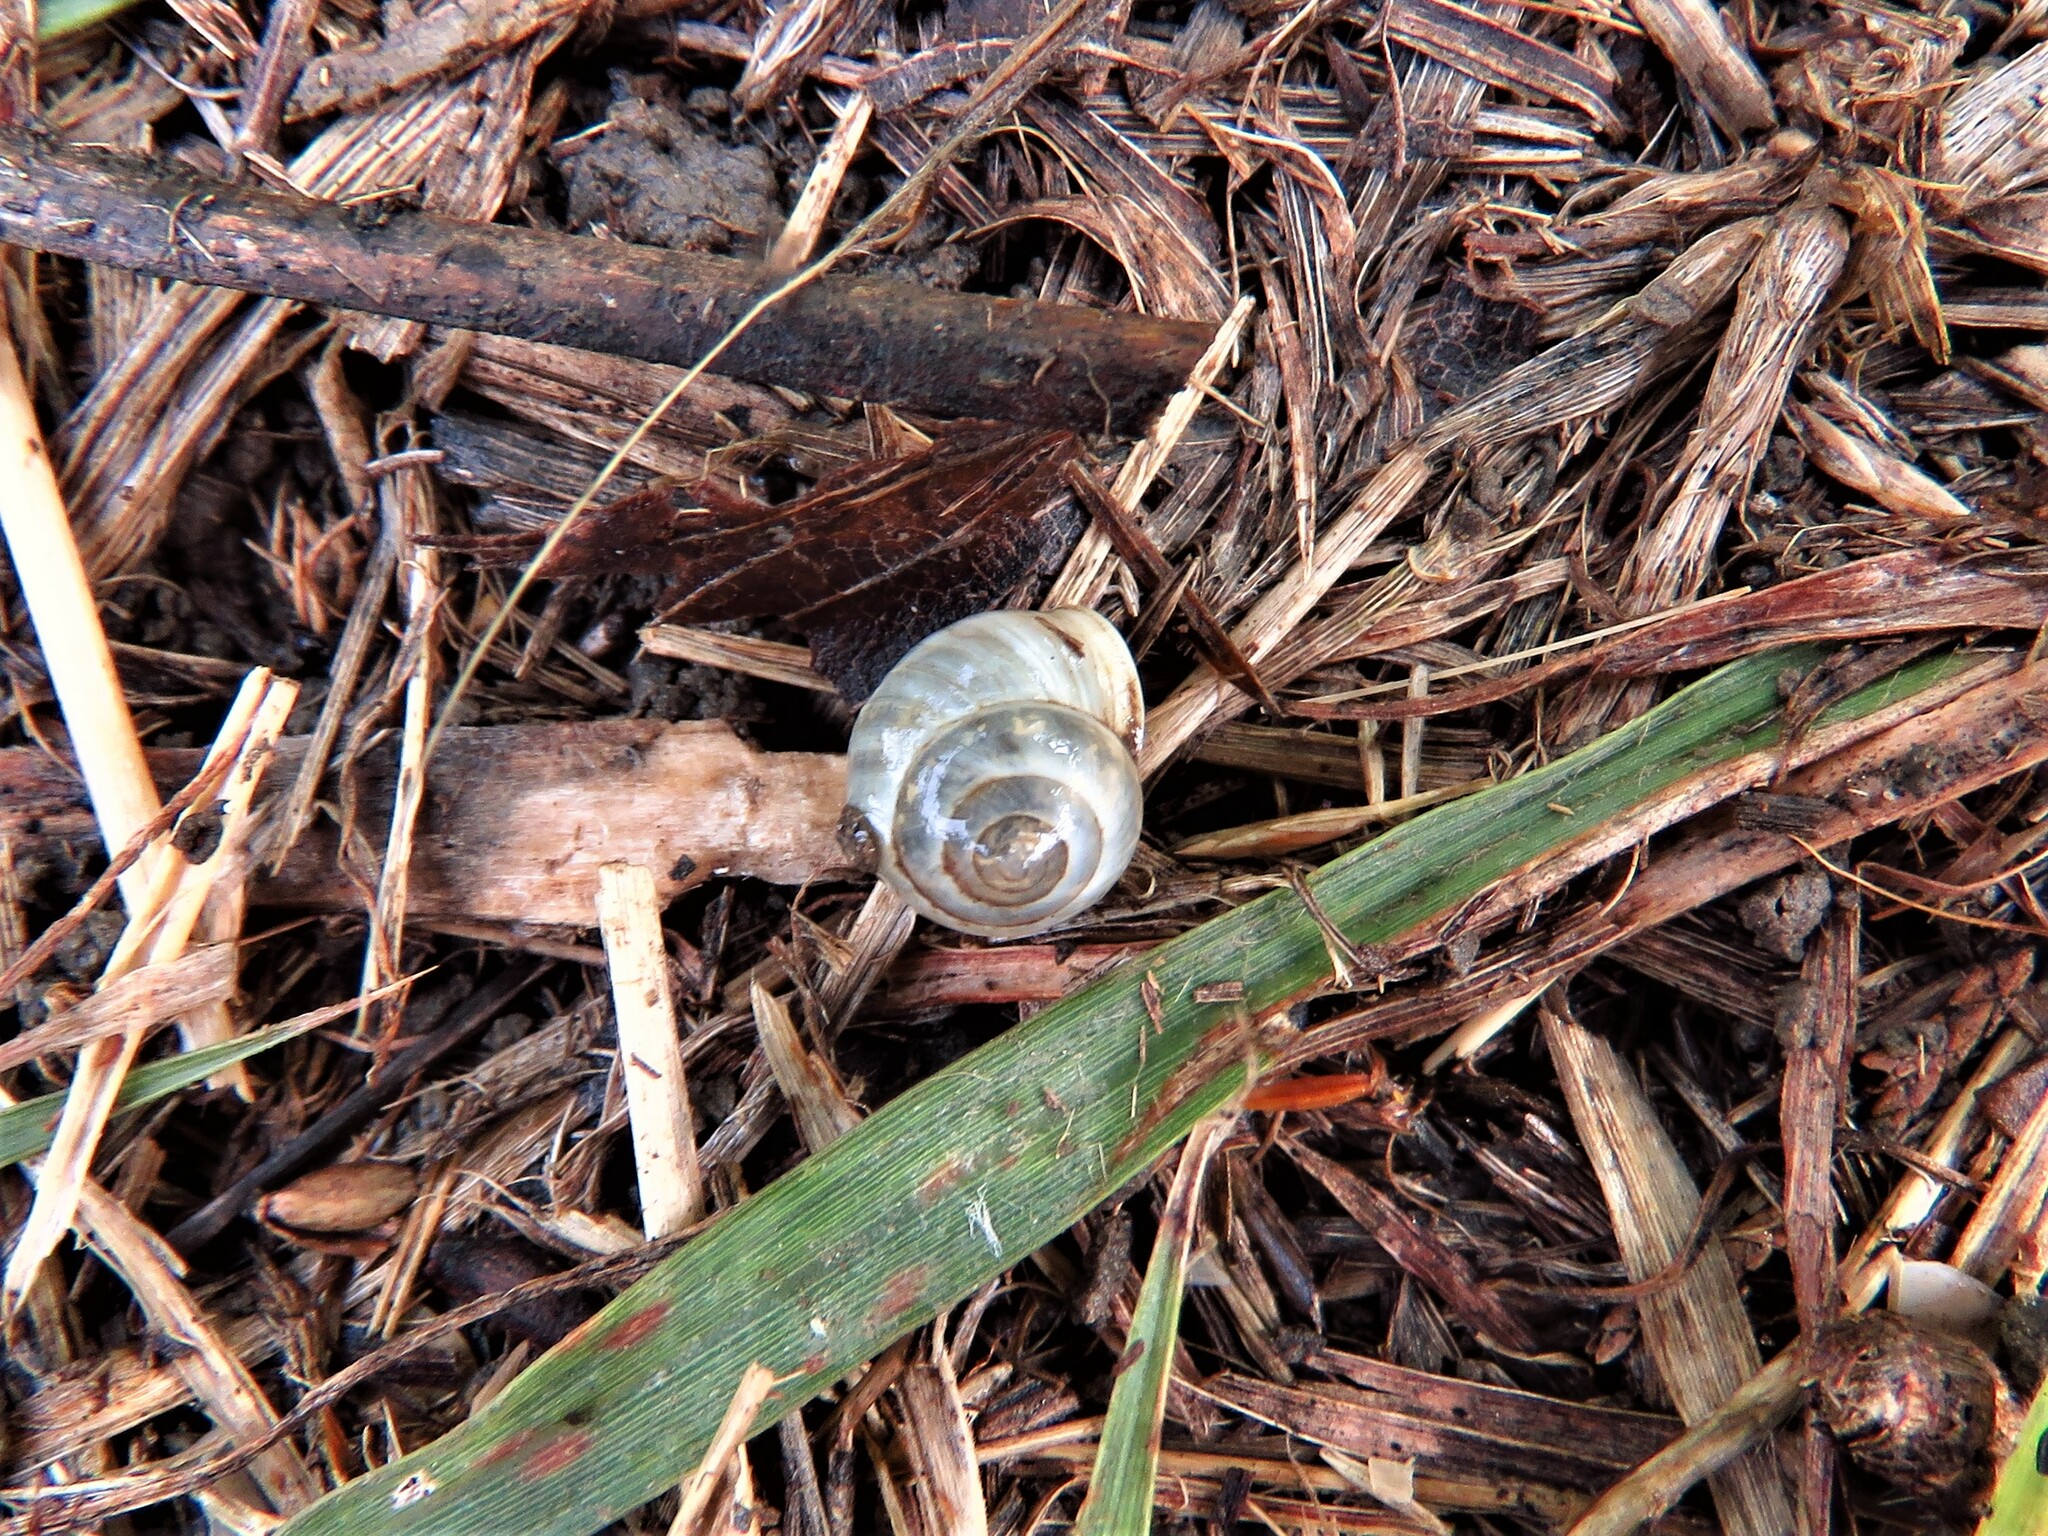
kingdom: Animalia
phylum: Mollusca
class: Gastropoda
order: Cycloneritida
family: Helicinidae
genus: Helicina
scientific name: Helicina orbiculata
